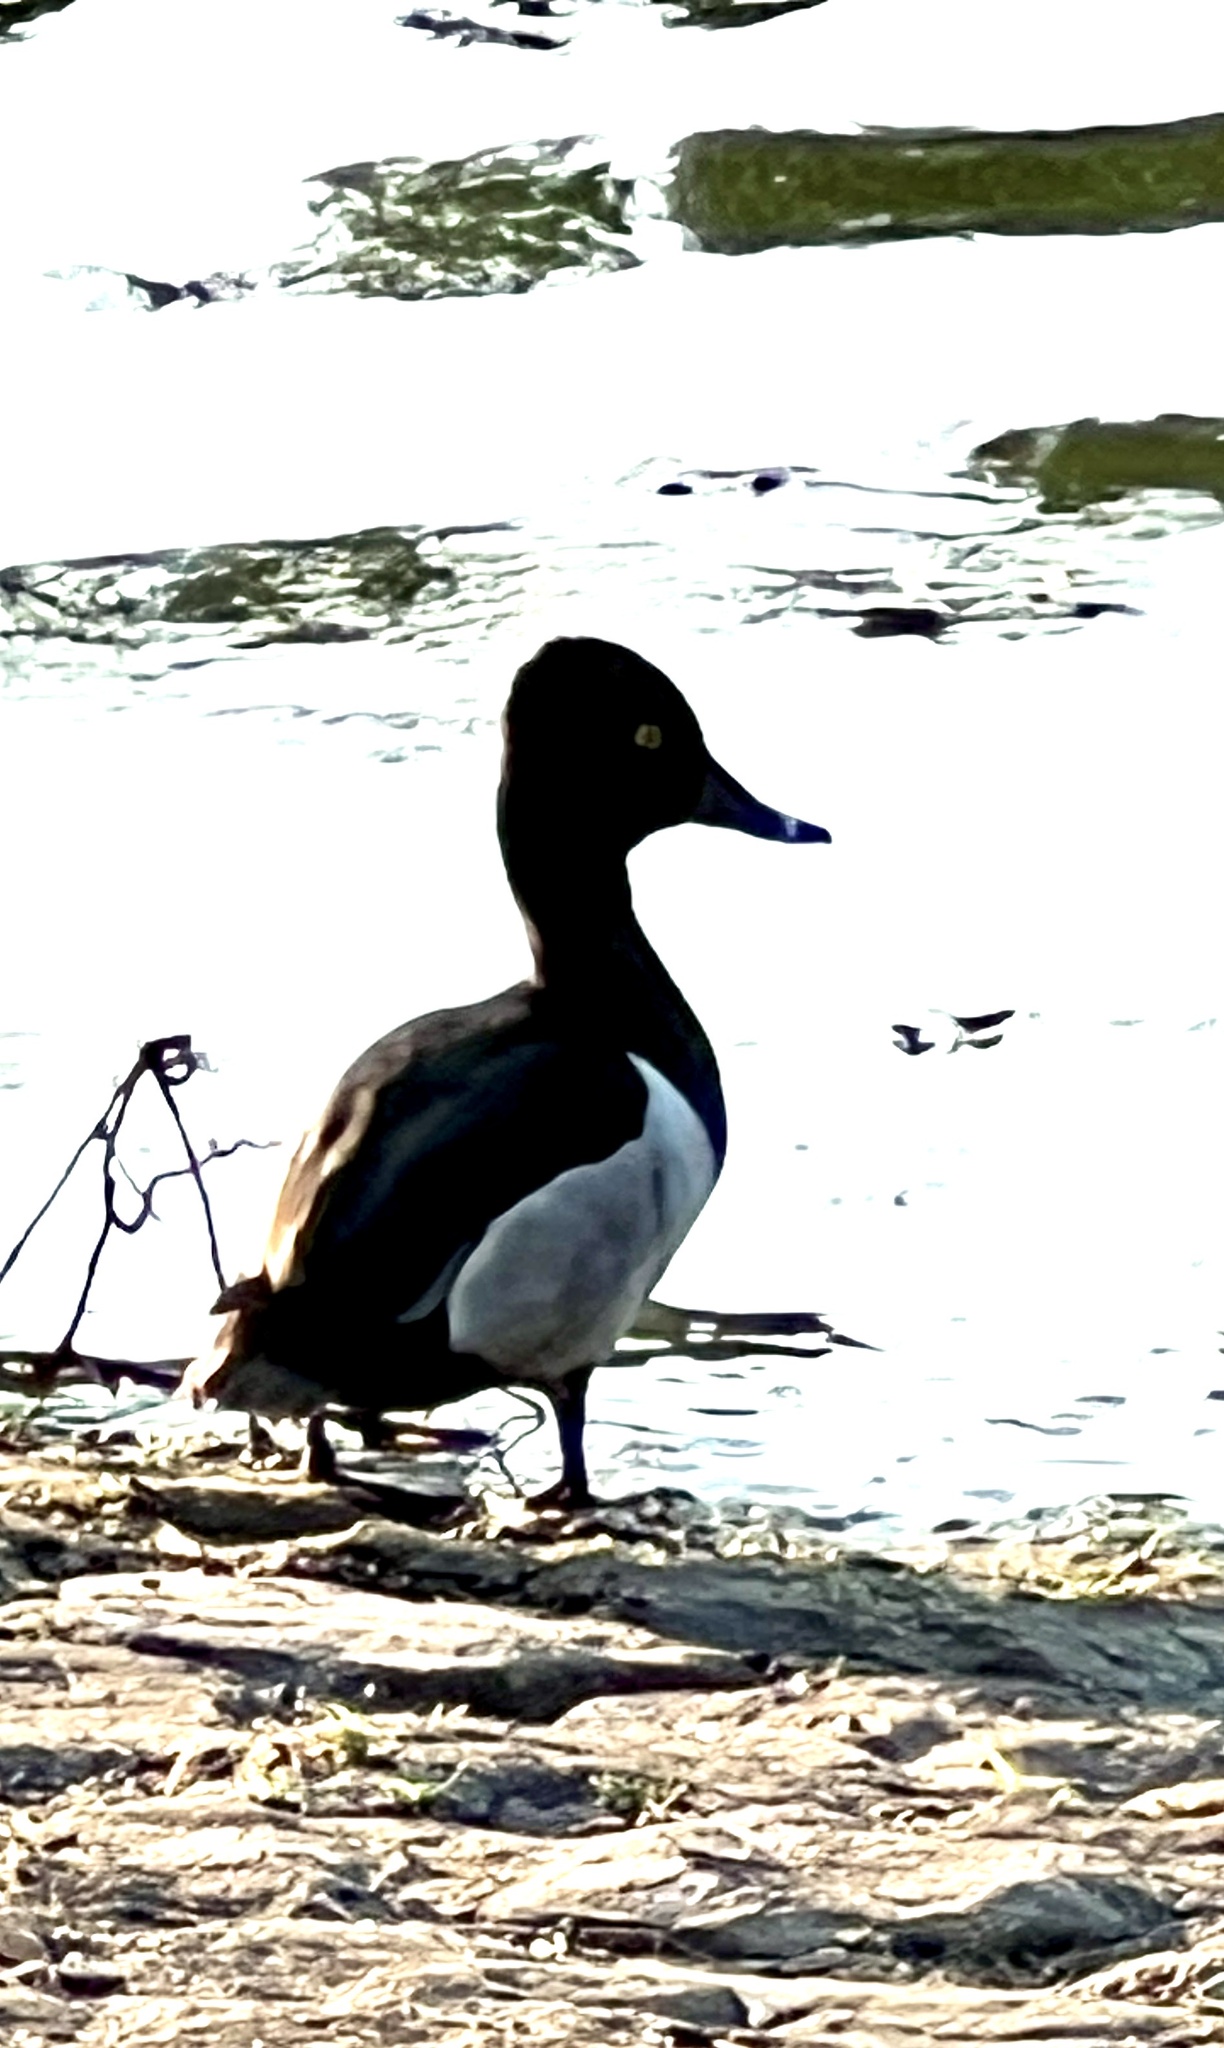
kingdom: Animalia
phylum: Chordata
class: Aves
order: Anseriformes
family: Anatidae
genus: Aythya
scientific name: Aythya collaris
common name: Ring-necked duck
